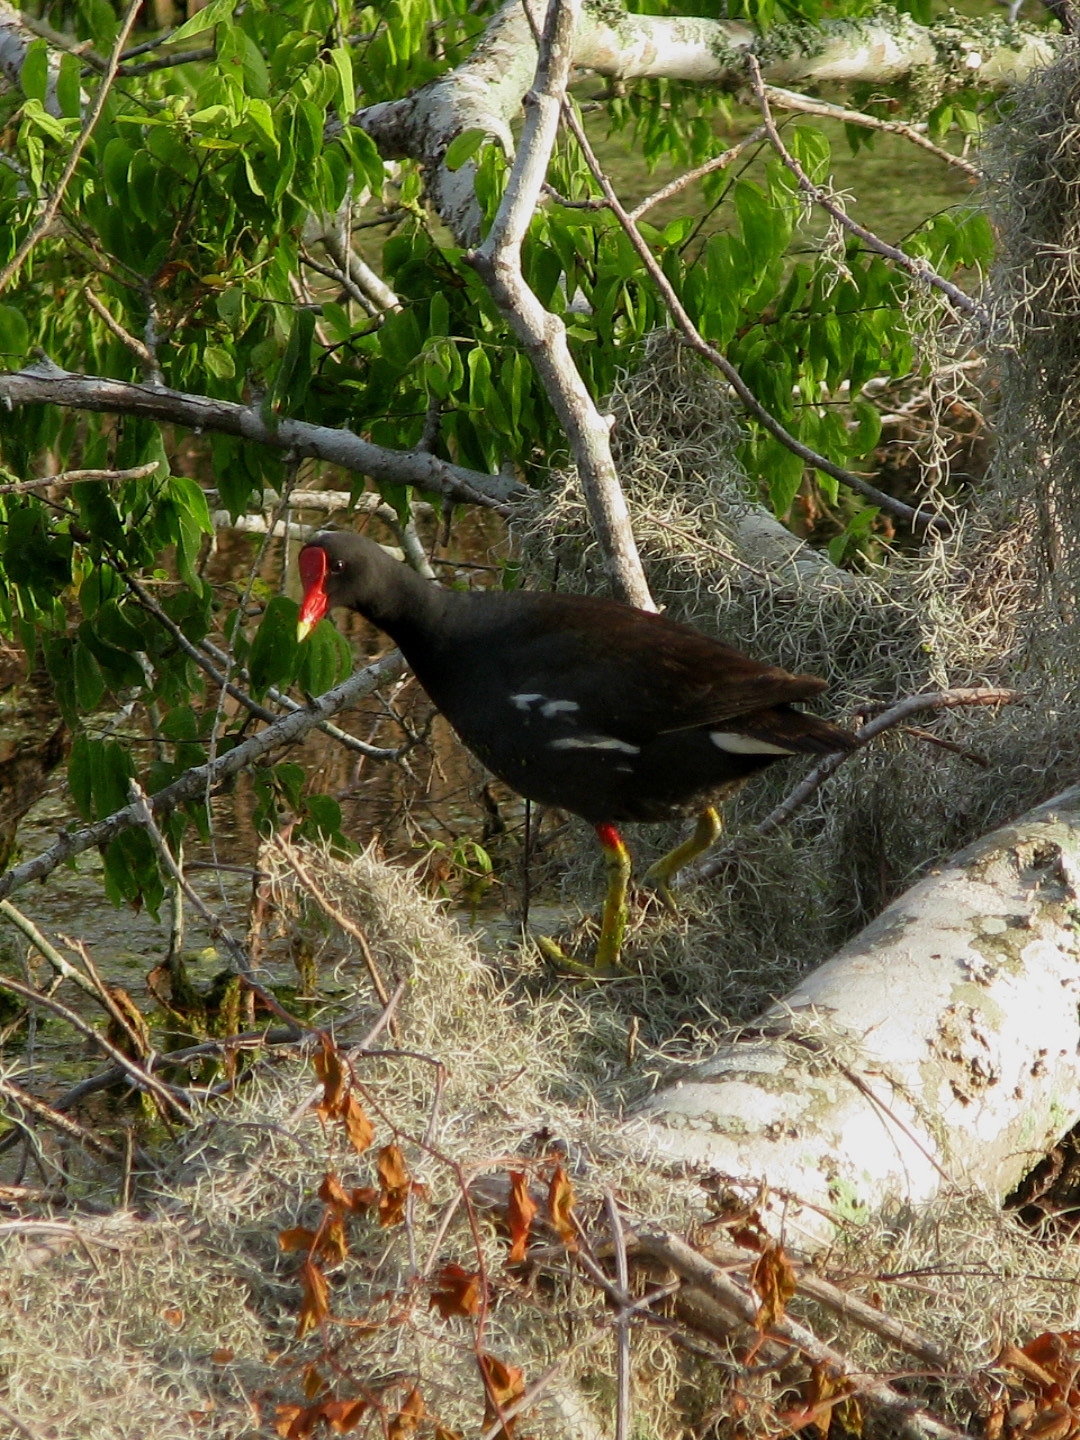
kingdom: Animalia
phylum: Chordata
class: Aves
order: Gruiformes
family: Rallidae
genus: Gallinula
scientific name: Gallinula chloropus
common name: Common moorhen
